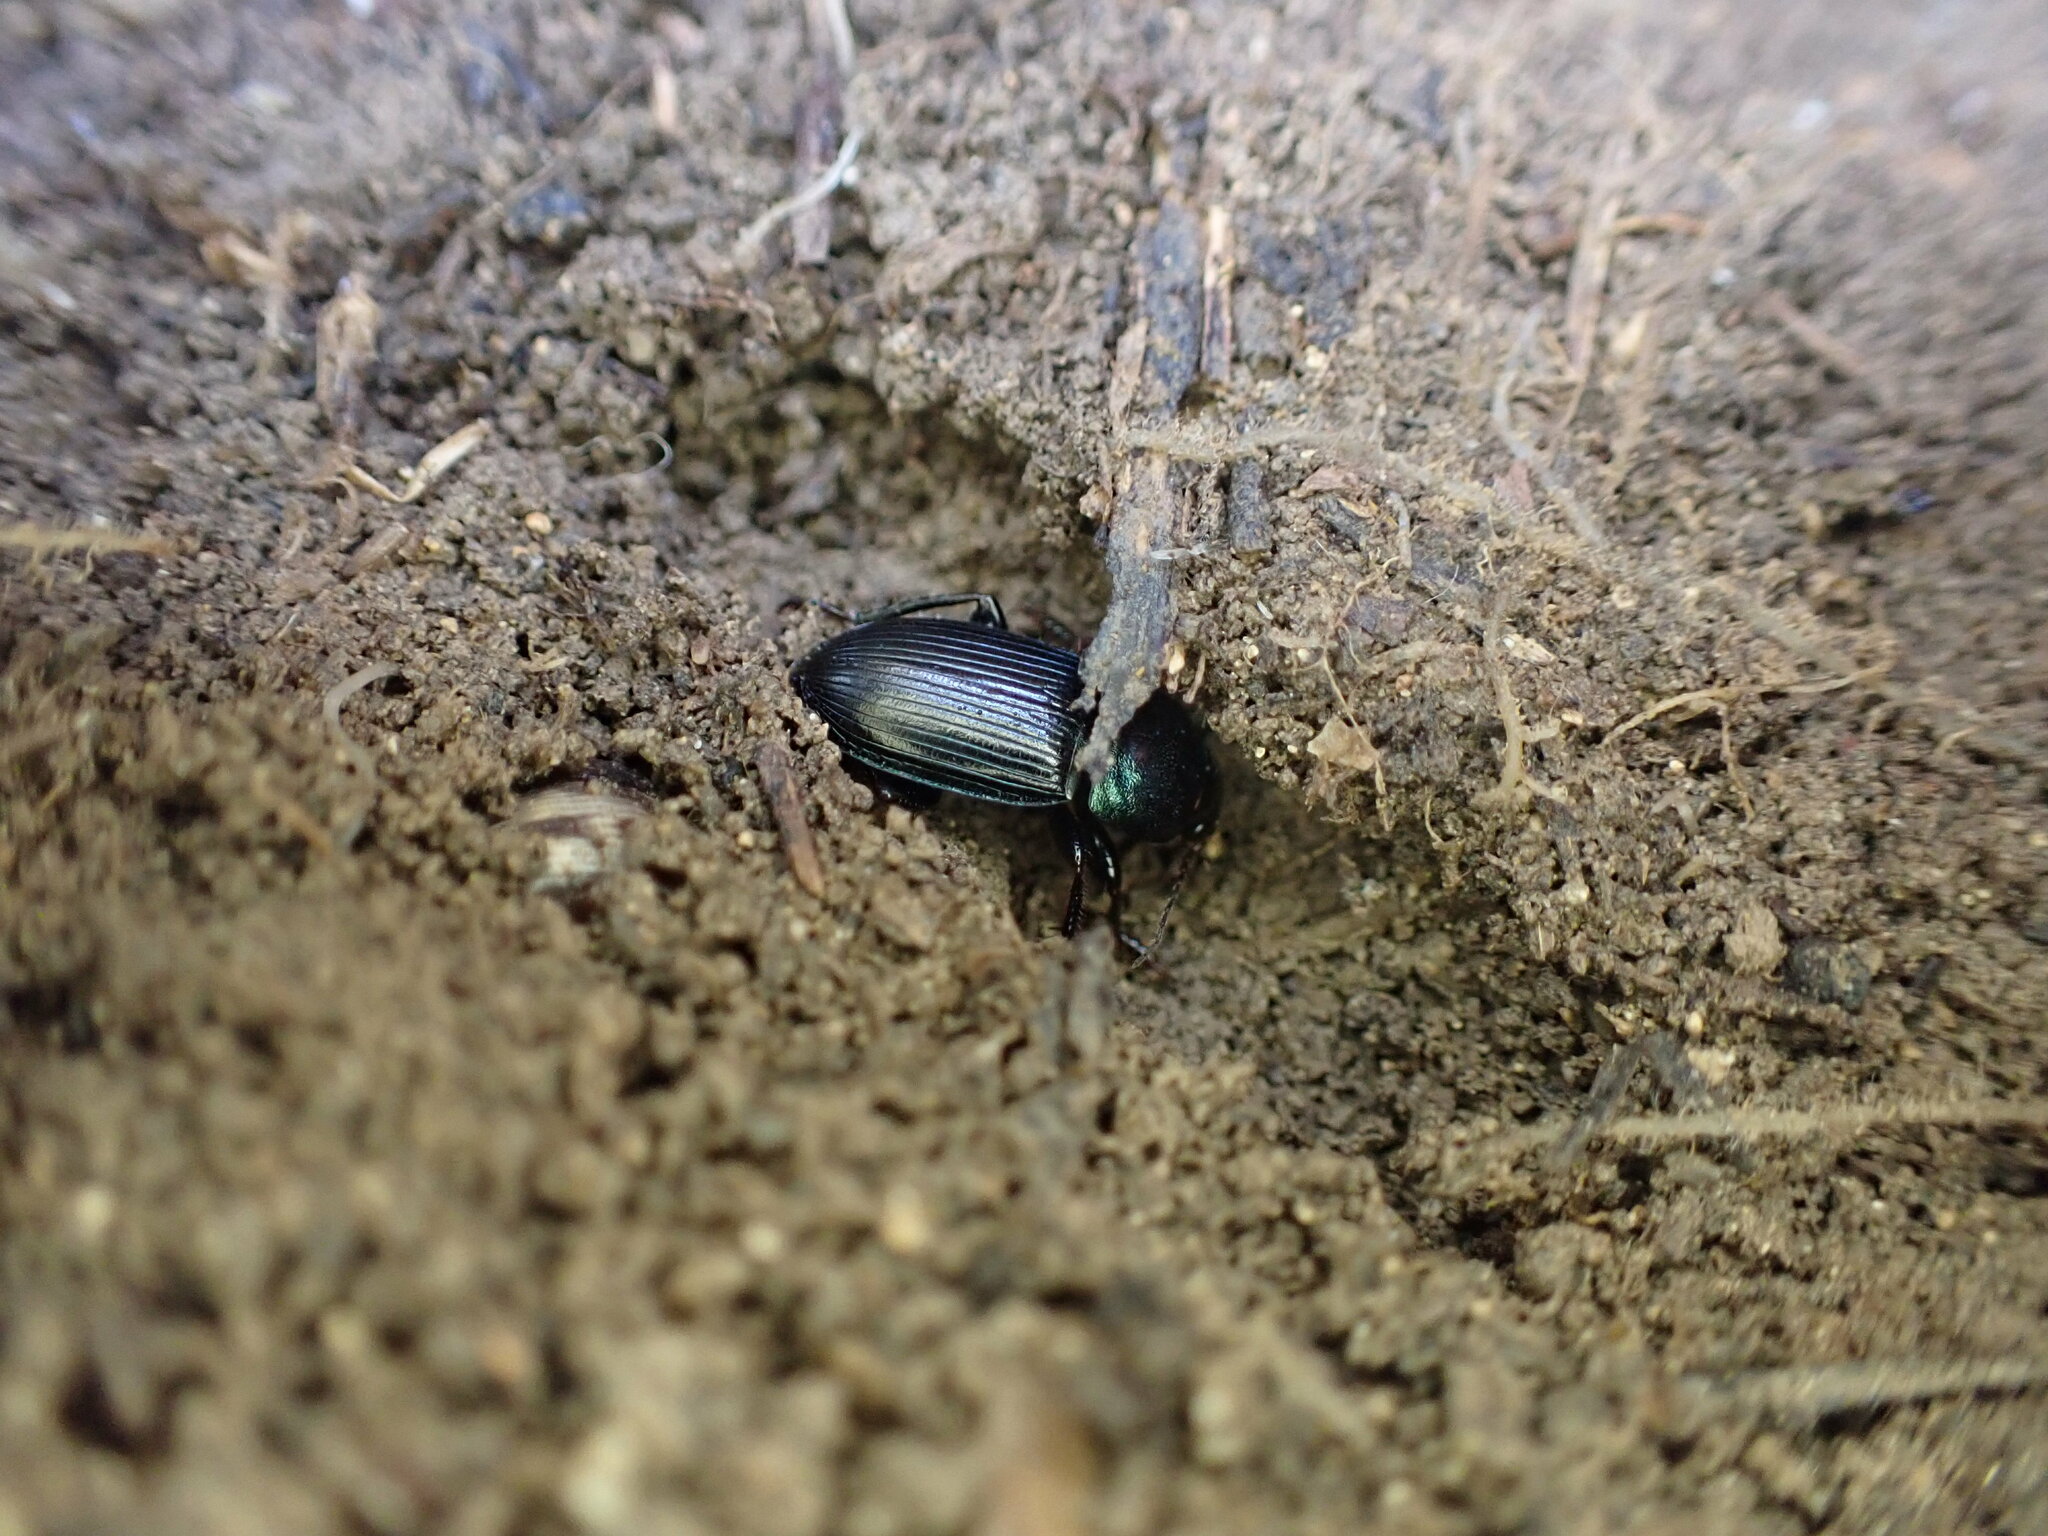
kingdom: Animalia
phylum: Arthropoda
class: Insecta
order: Coleoptera
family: Carabidae
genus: Harpalus
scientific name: Harpalus dimidiatus
